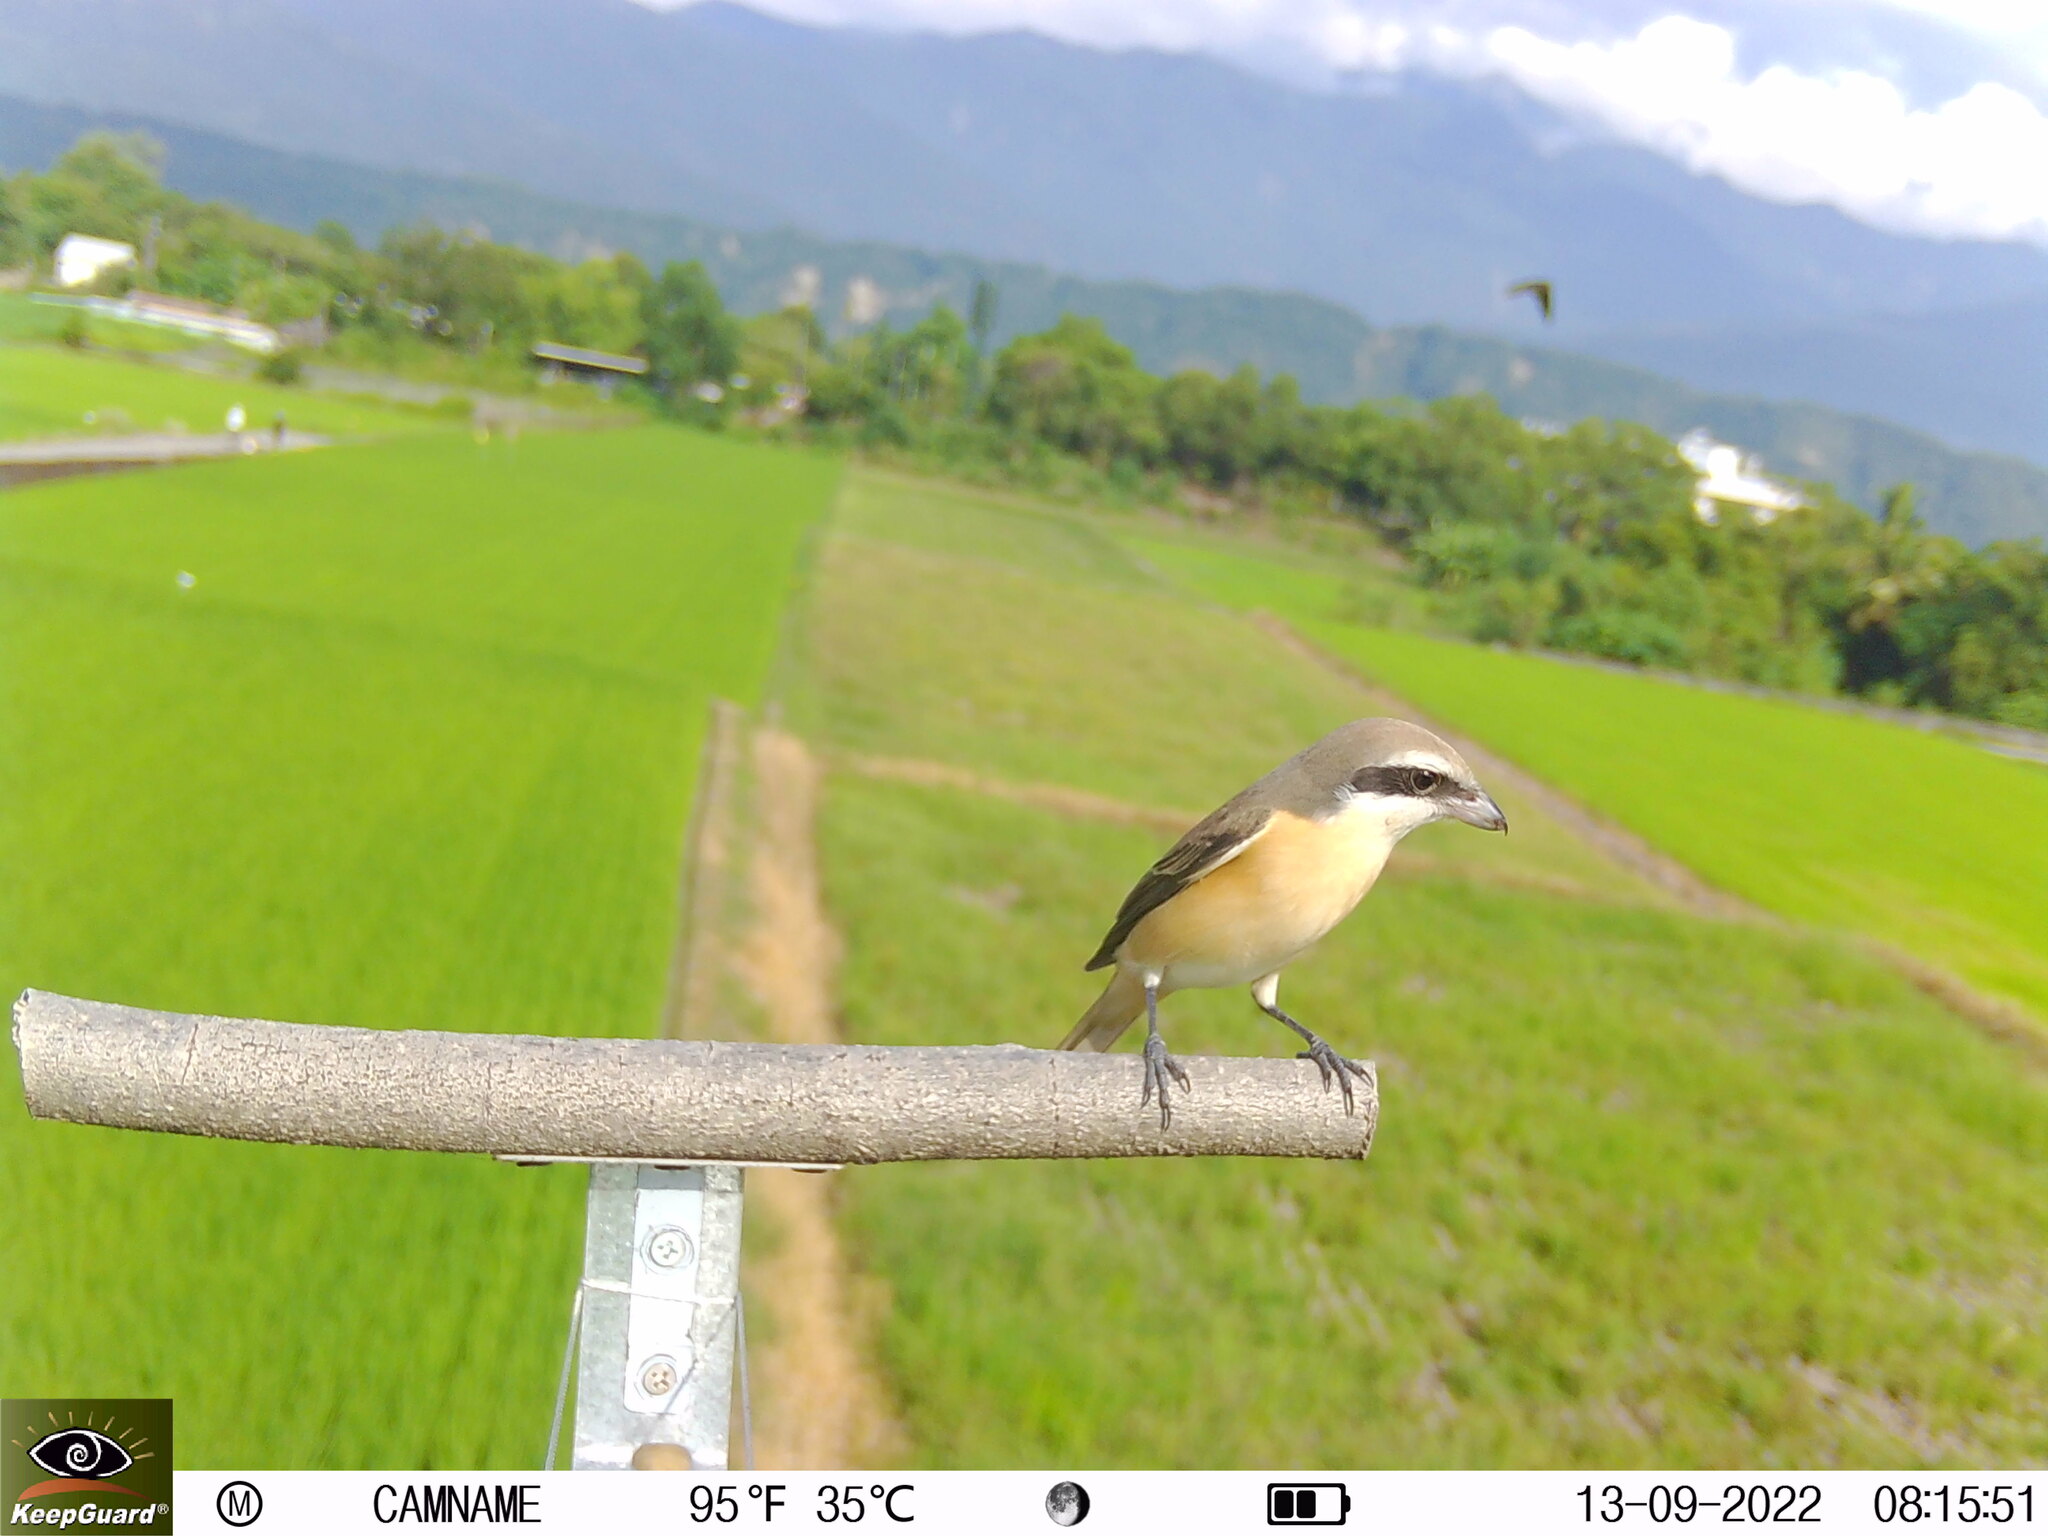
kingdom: Animalia
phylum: Chordata
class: Aves
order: Passeriformes
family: Laniidae
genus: Lanius
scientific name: Lanius cristatus
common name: Brown shrike
